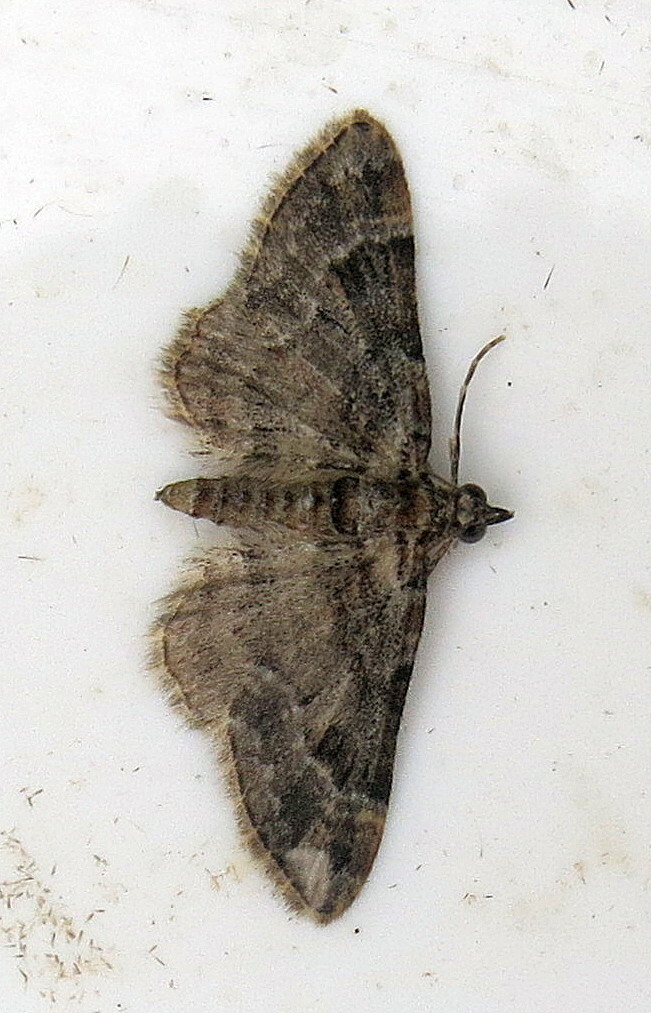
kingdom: Animalia
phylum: Arthropoda
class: Insecta
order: Lepidoptera
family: Geometridae
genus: Gymnoscelis
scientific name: Gymnoscelis rufifasciata
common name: Double-striped pug
